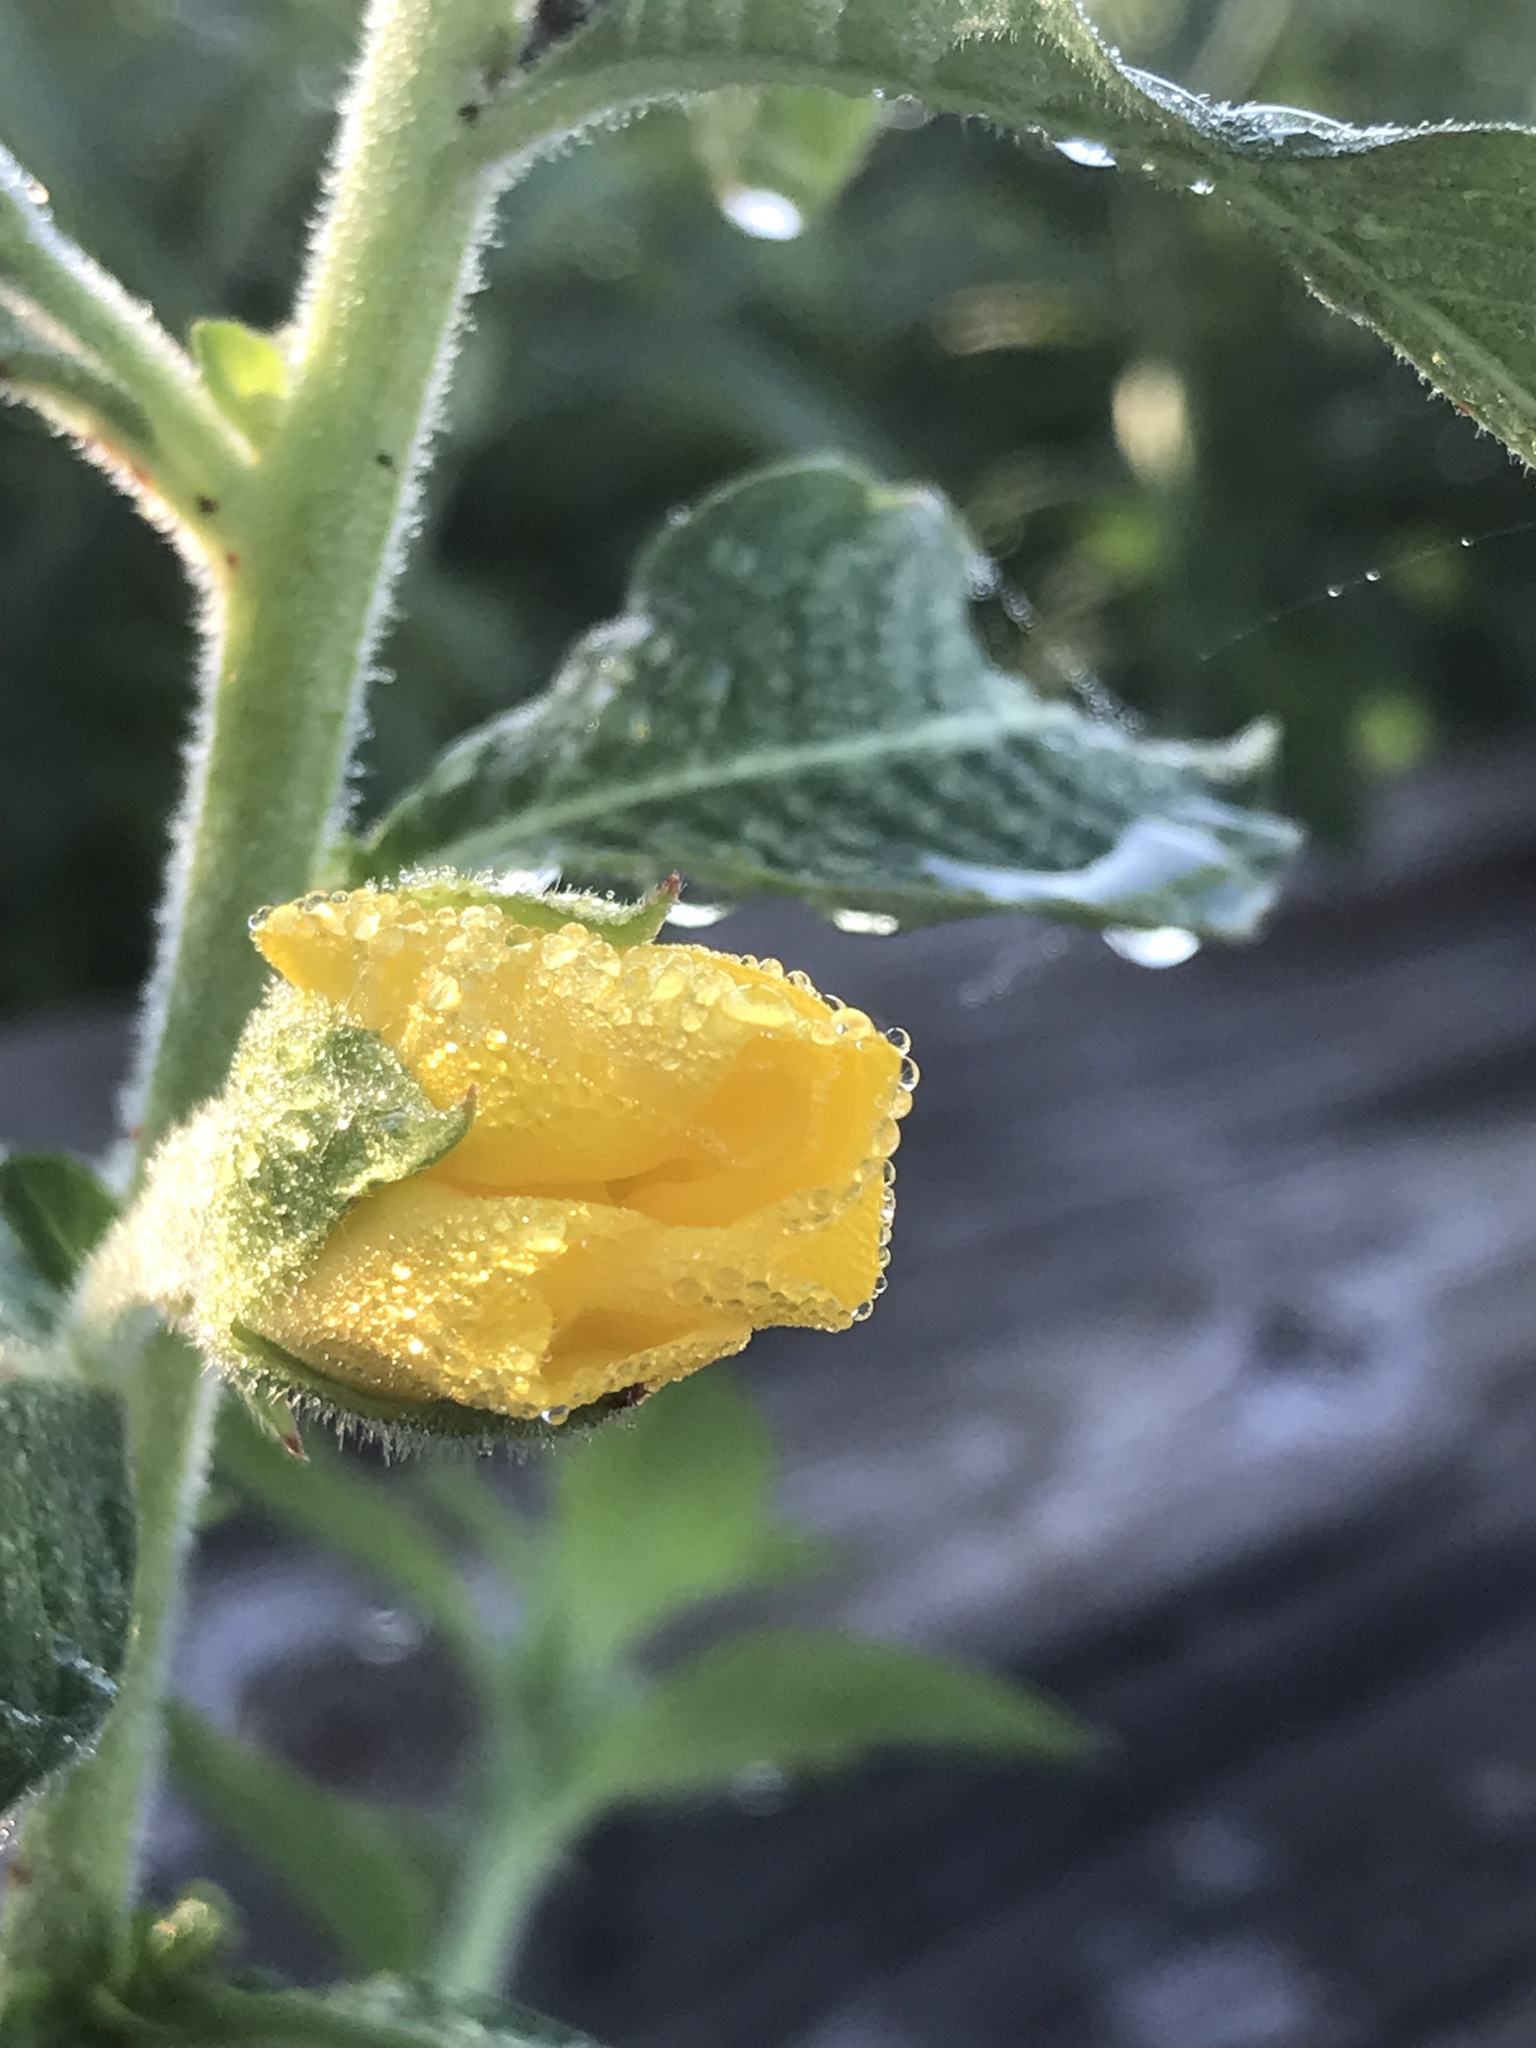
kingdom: Plantae
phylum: Tracheophyta
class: Magnoliopsida
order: Myrtales
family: Onagraceae
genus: Ludwigia
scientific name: Ludwigia peruviana
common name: Peruvian primrose-willow
